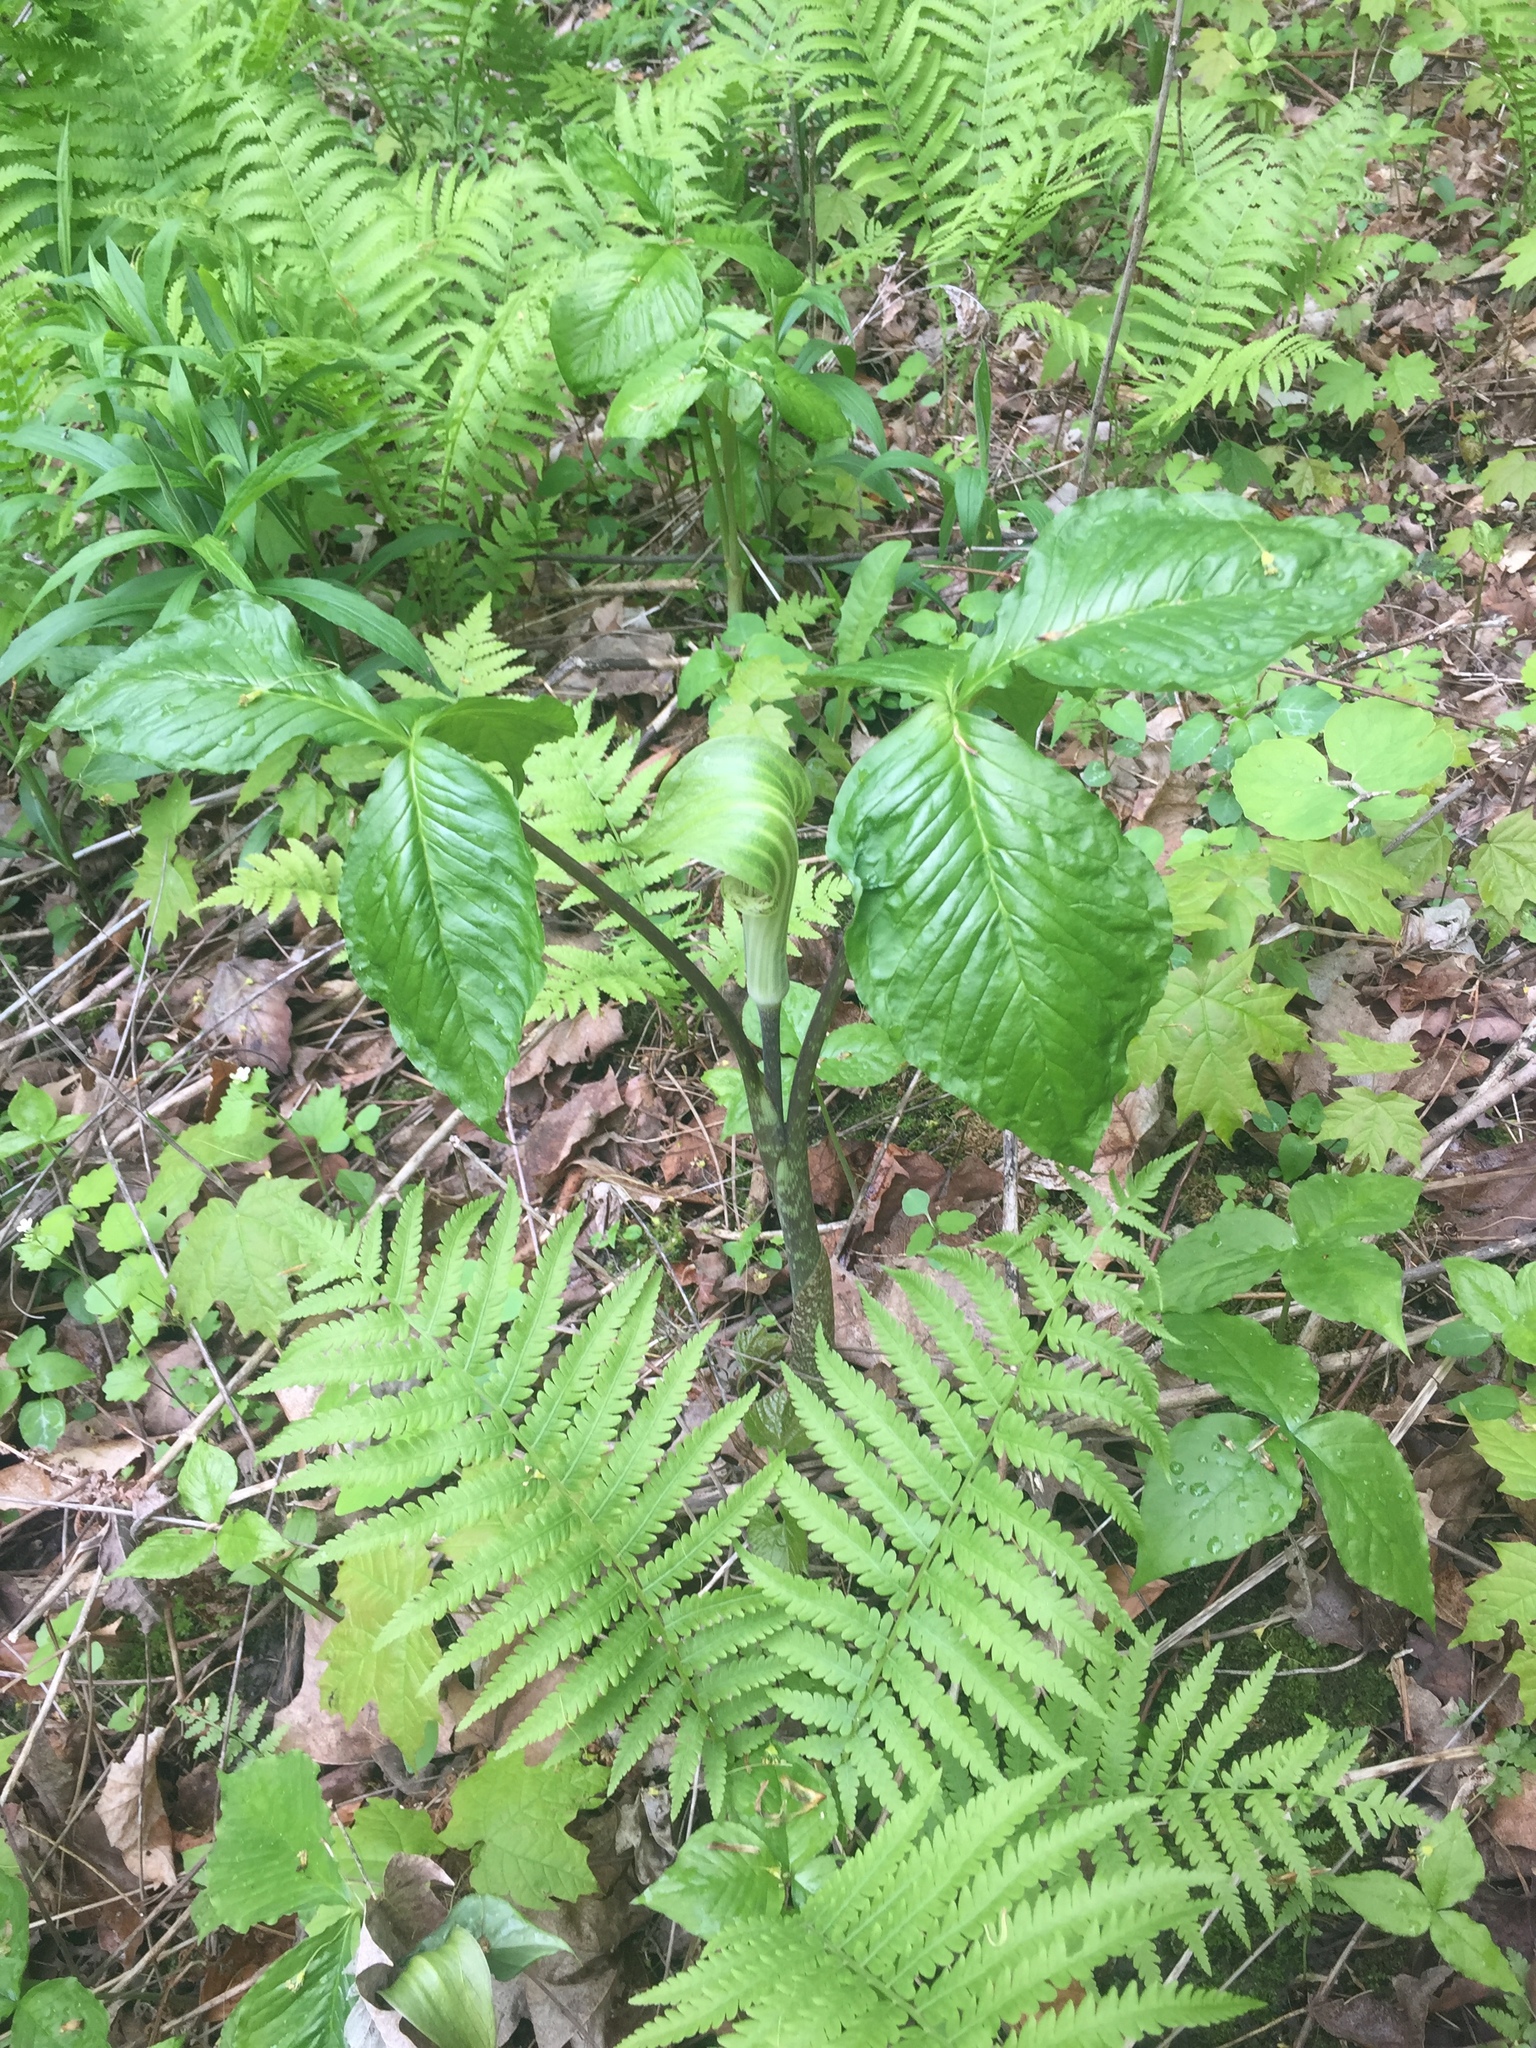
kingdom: Plantae
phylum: Tracheophyta
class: Liliopsida
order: Alismatales
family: Araceae
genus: Arisaema
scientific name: Arisaema triphyllum
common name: Jack-in-the-pulpit
